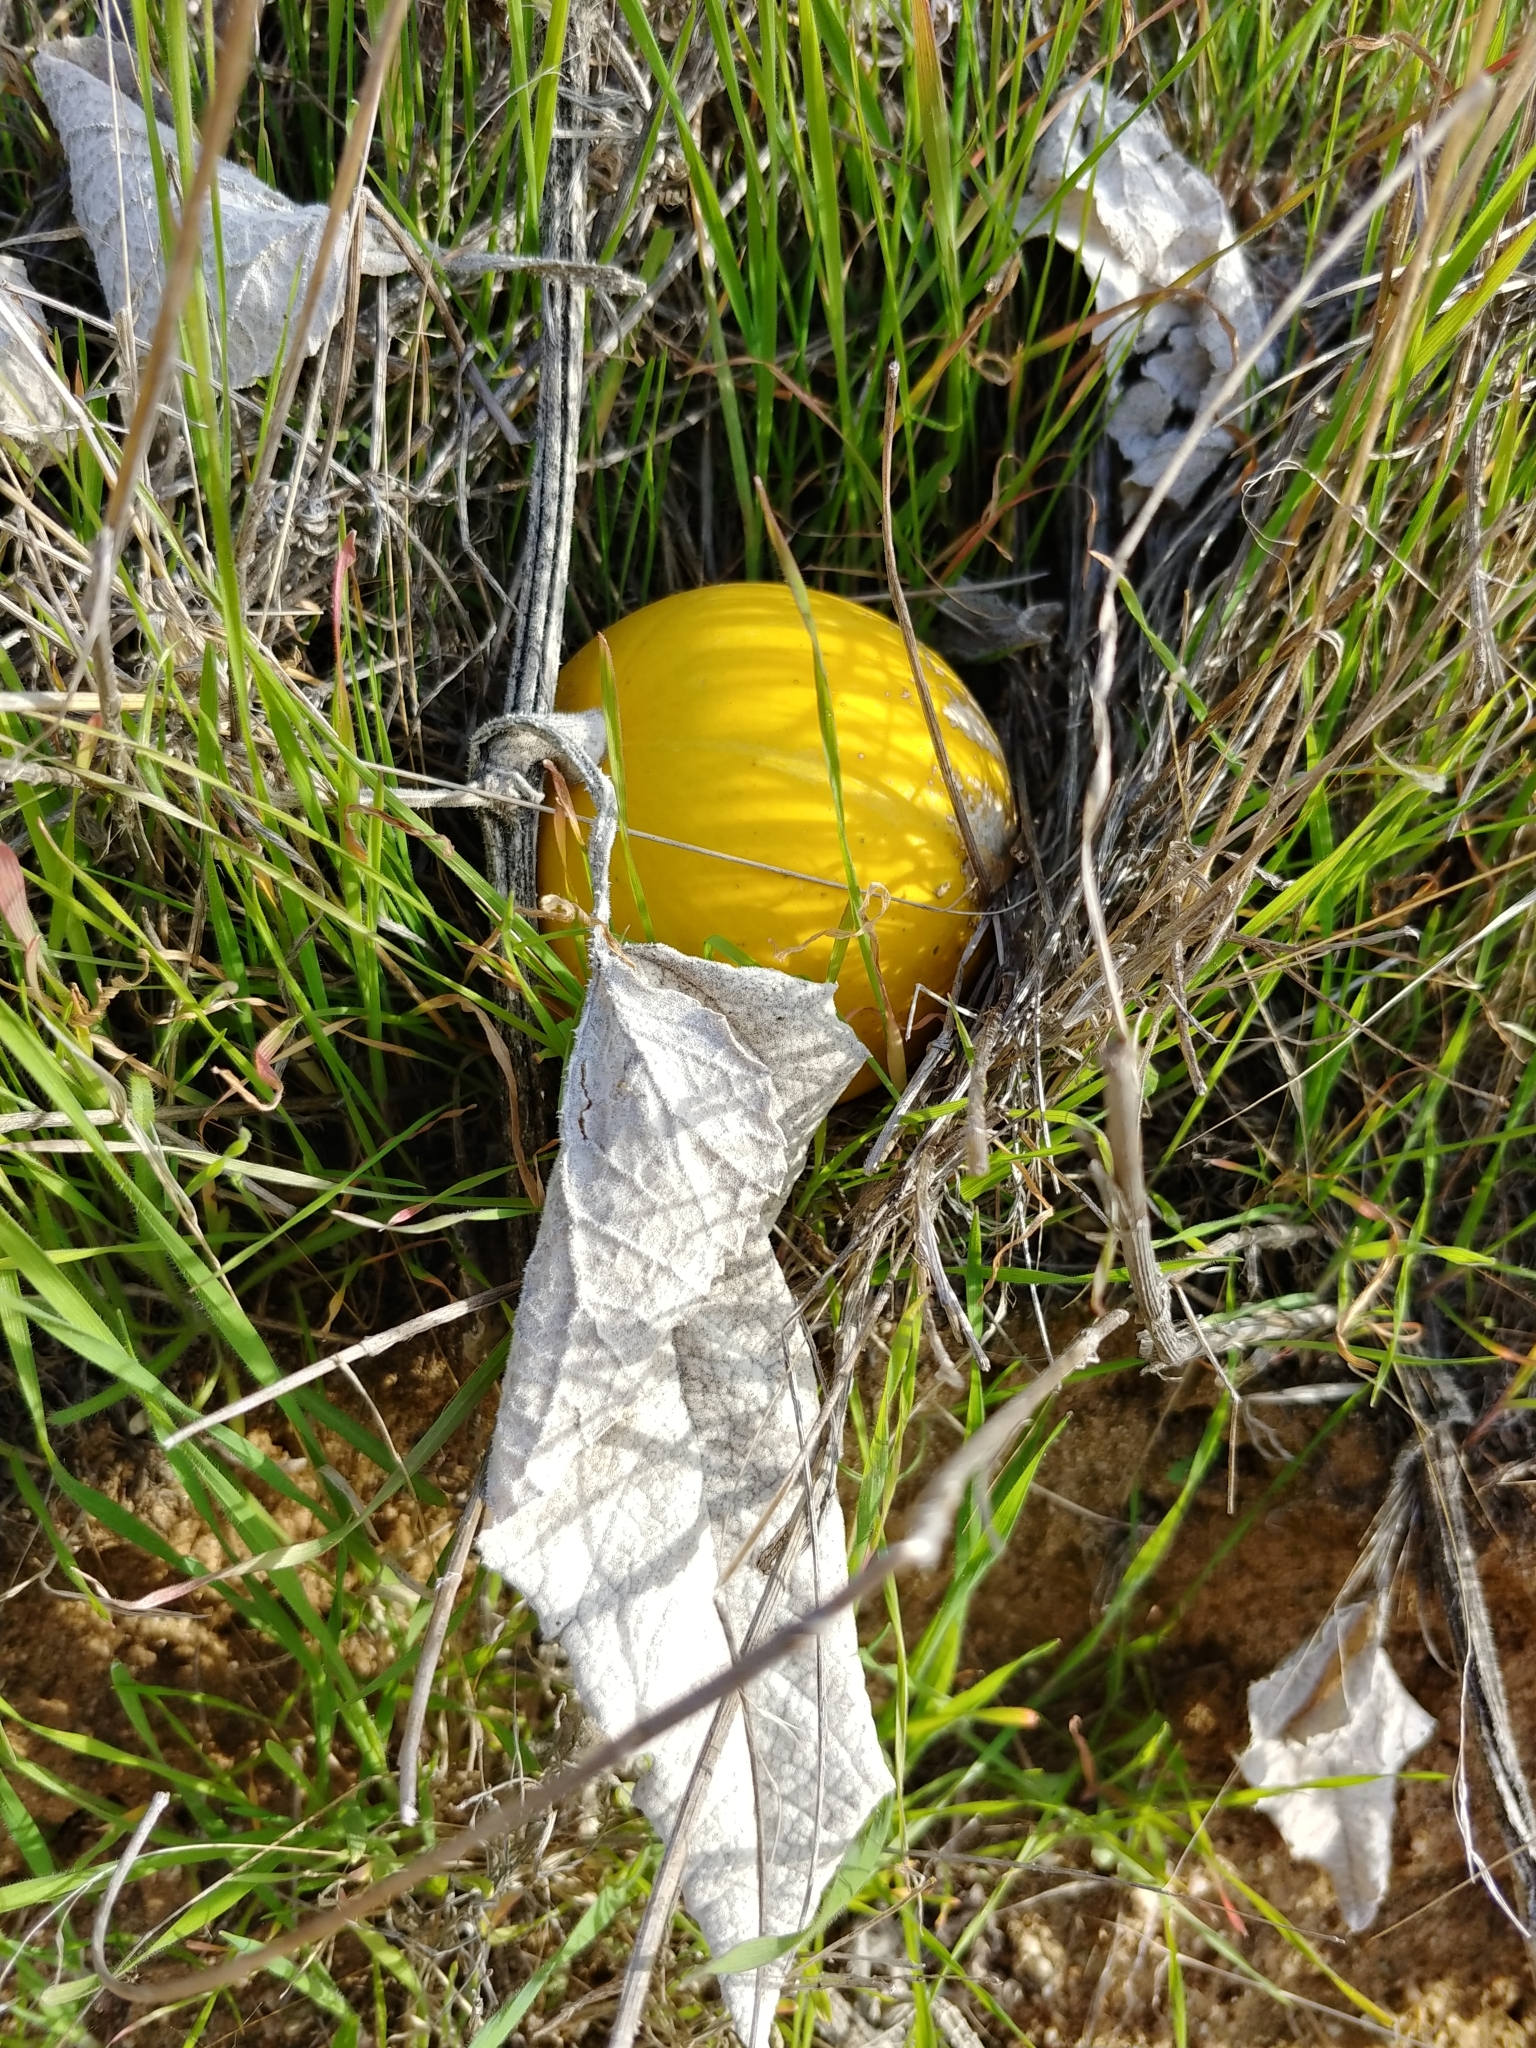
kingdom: Plantae
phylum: Tracheophyta
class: Magnoliopsida
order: Cucurbitales
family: Cucurbitaceae
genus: Cucurbita
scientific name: Cucurbita foetidissima
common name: Buffalo gourd
